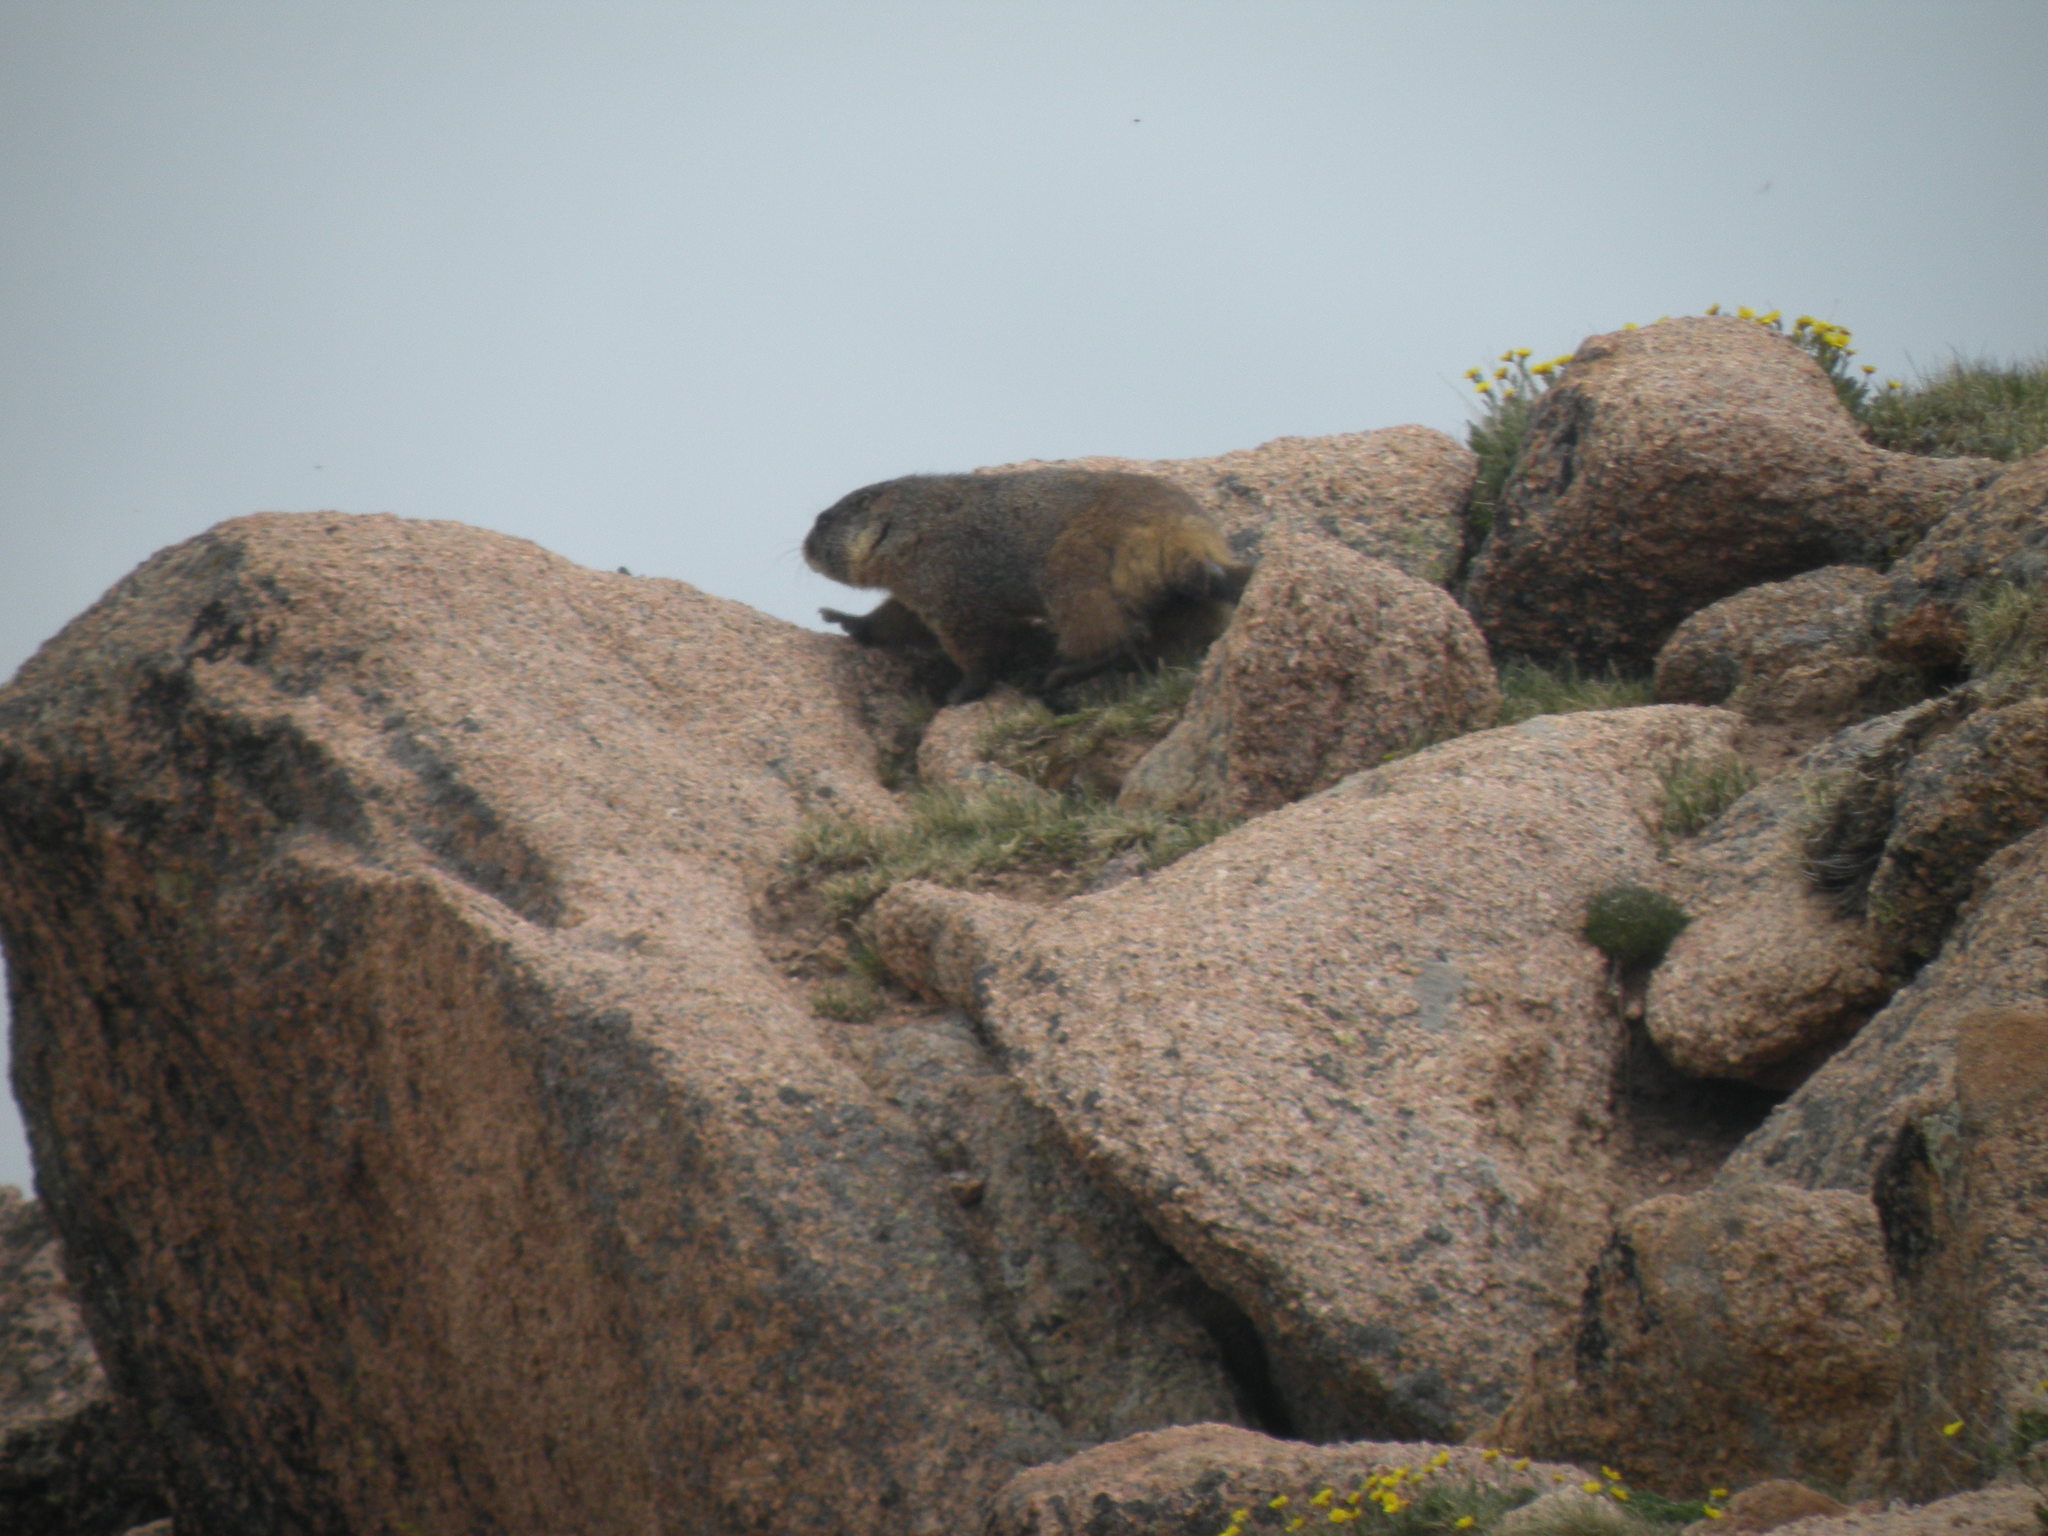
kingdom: Animalia
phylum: Chordata
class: Mammalia
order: Rodentia
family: Sciuridae
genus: Marmota
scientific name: Marmota flaviventris
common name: Yellow-bellied marmot
